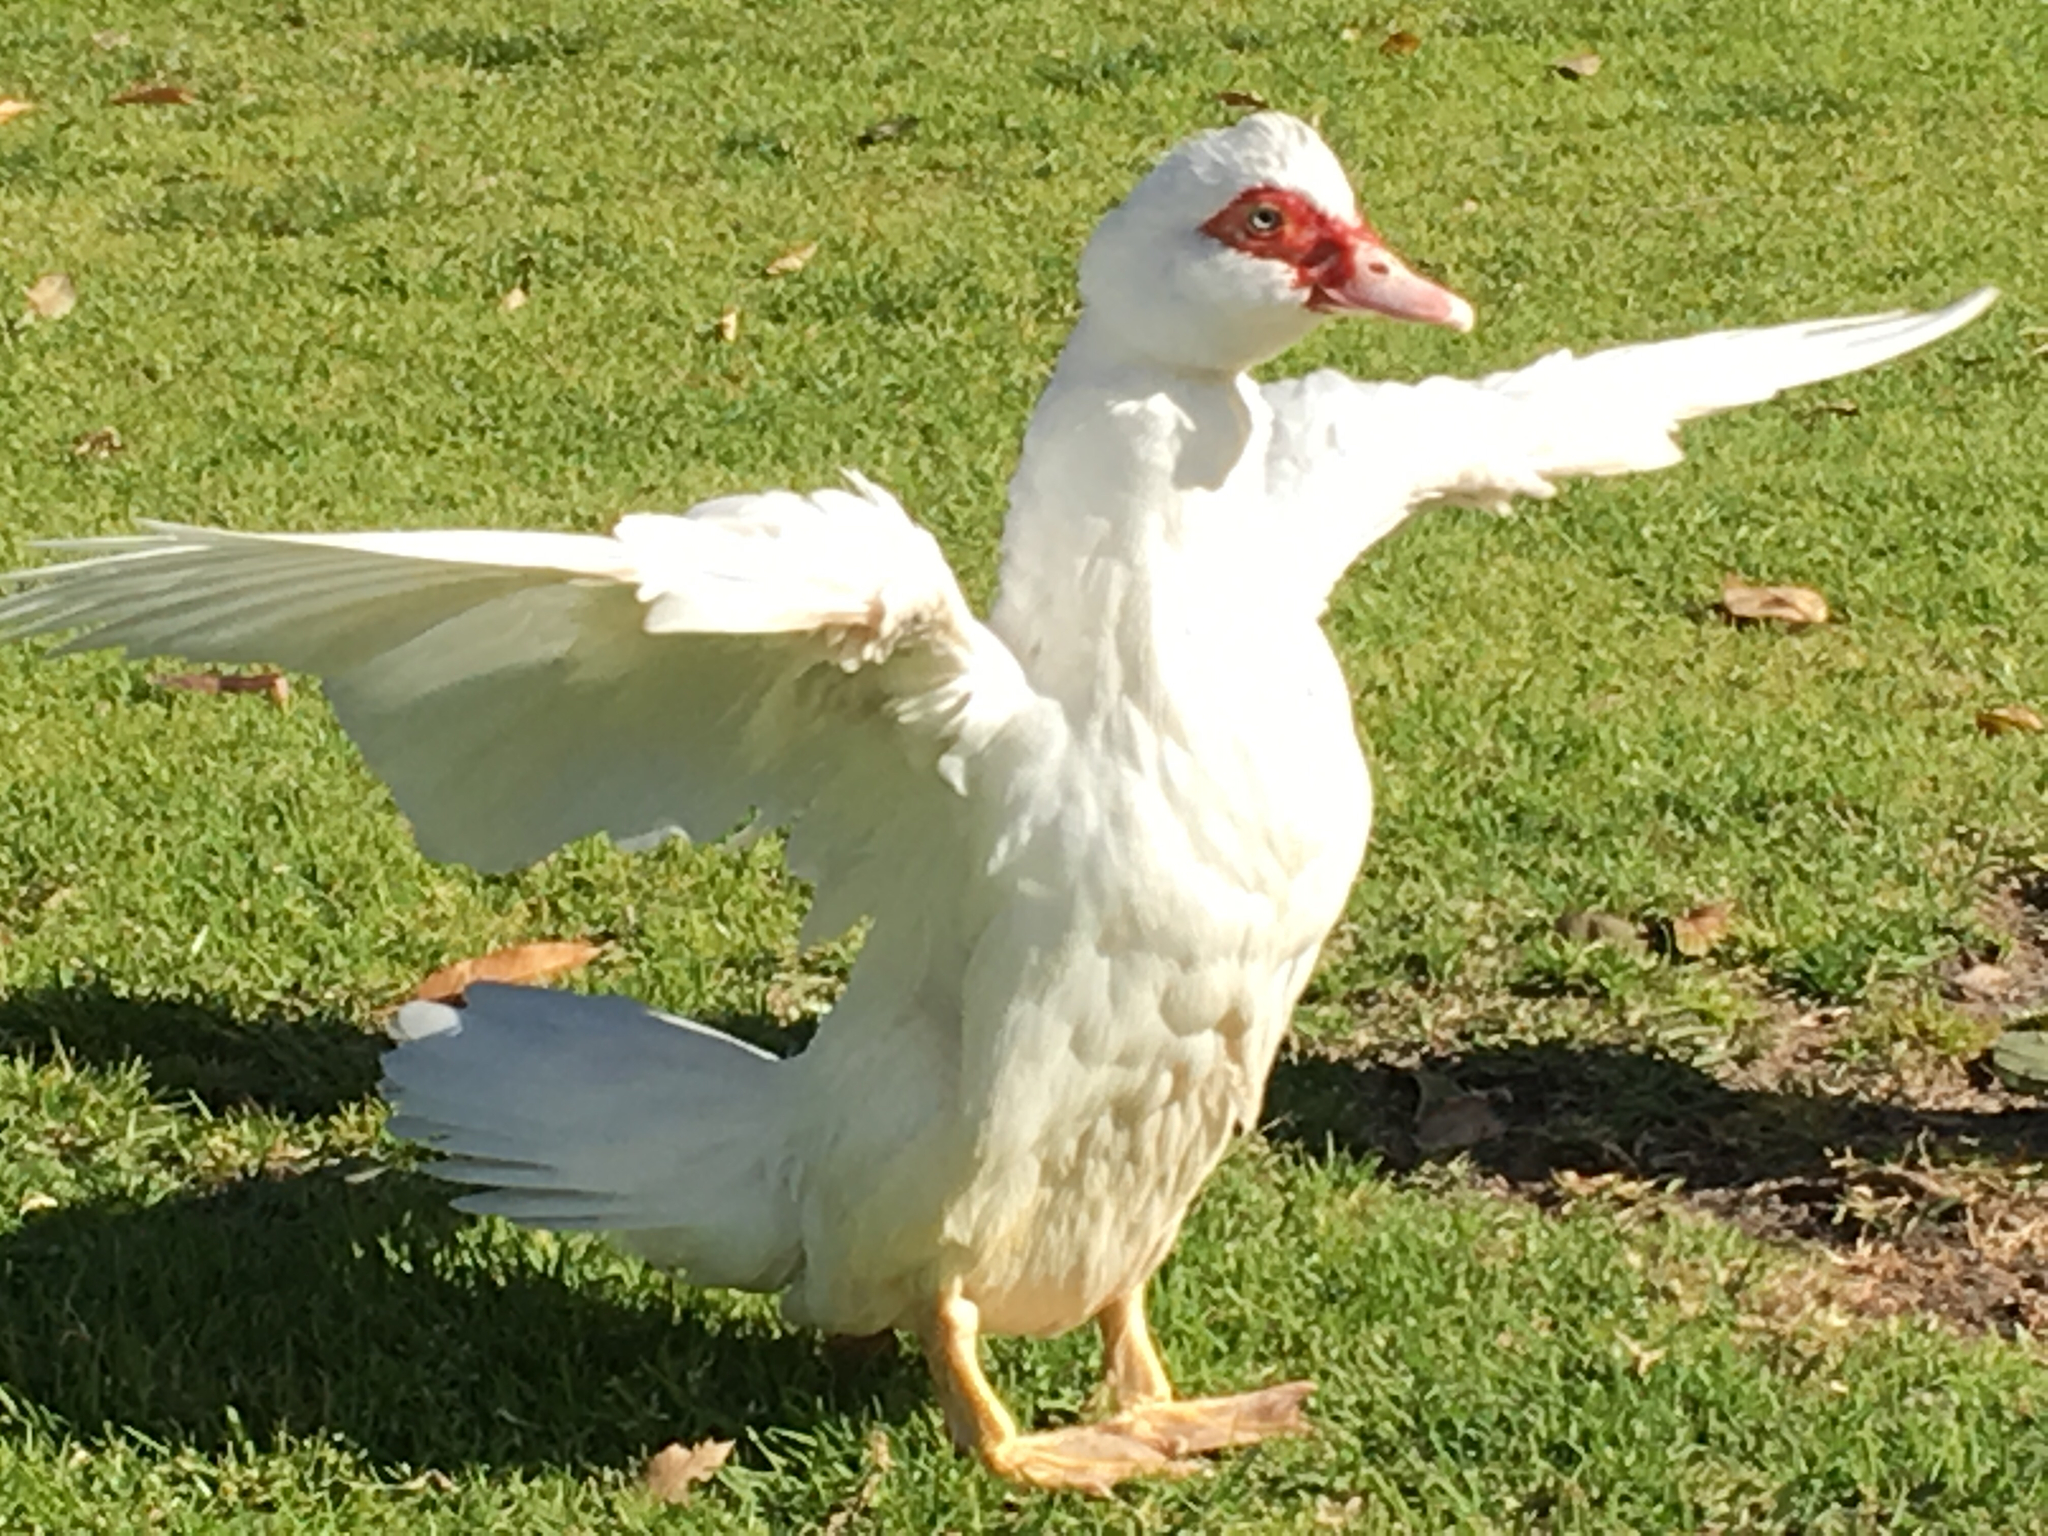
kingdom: Animalia
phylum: Chordata
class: Aves
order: Anseriformes
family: Anatidae
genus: Cairina
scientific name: Cairina moschata
